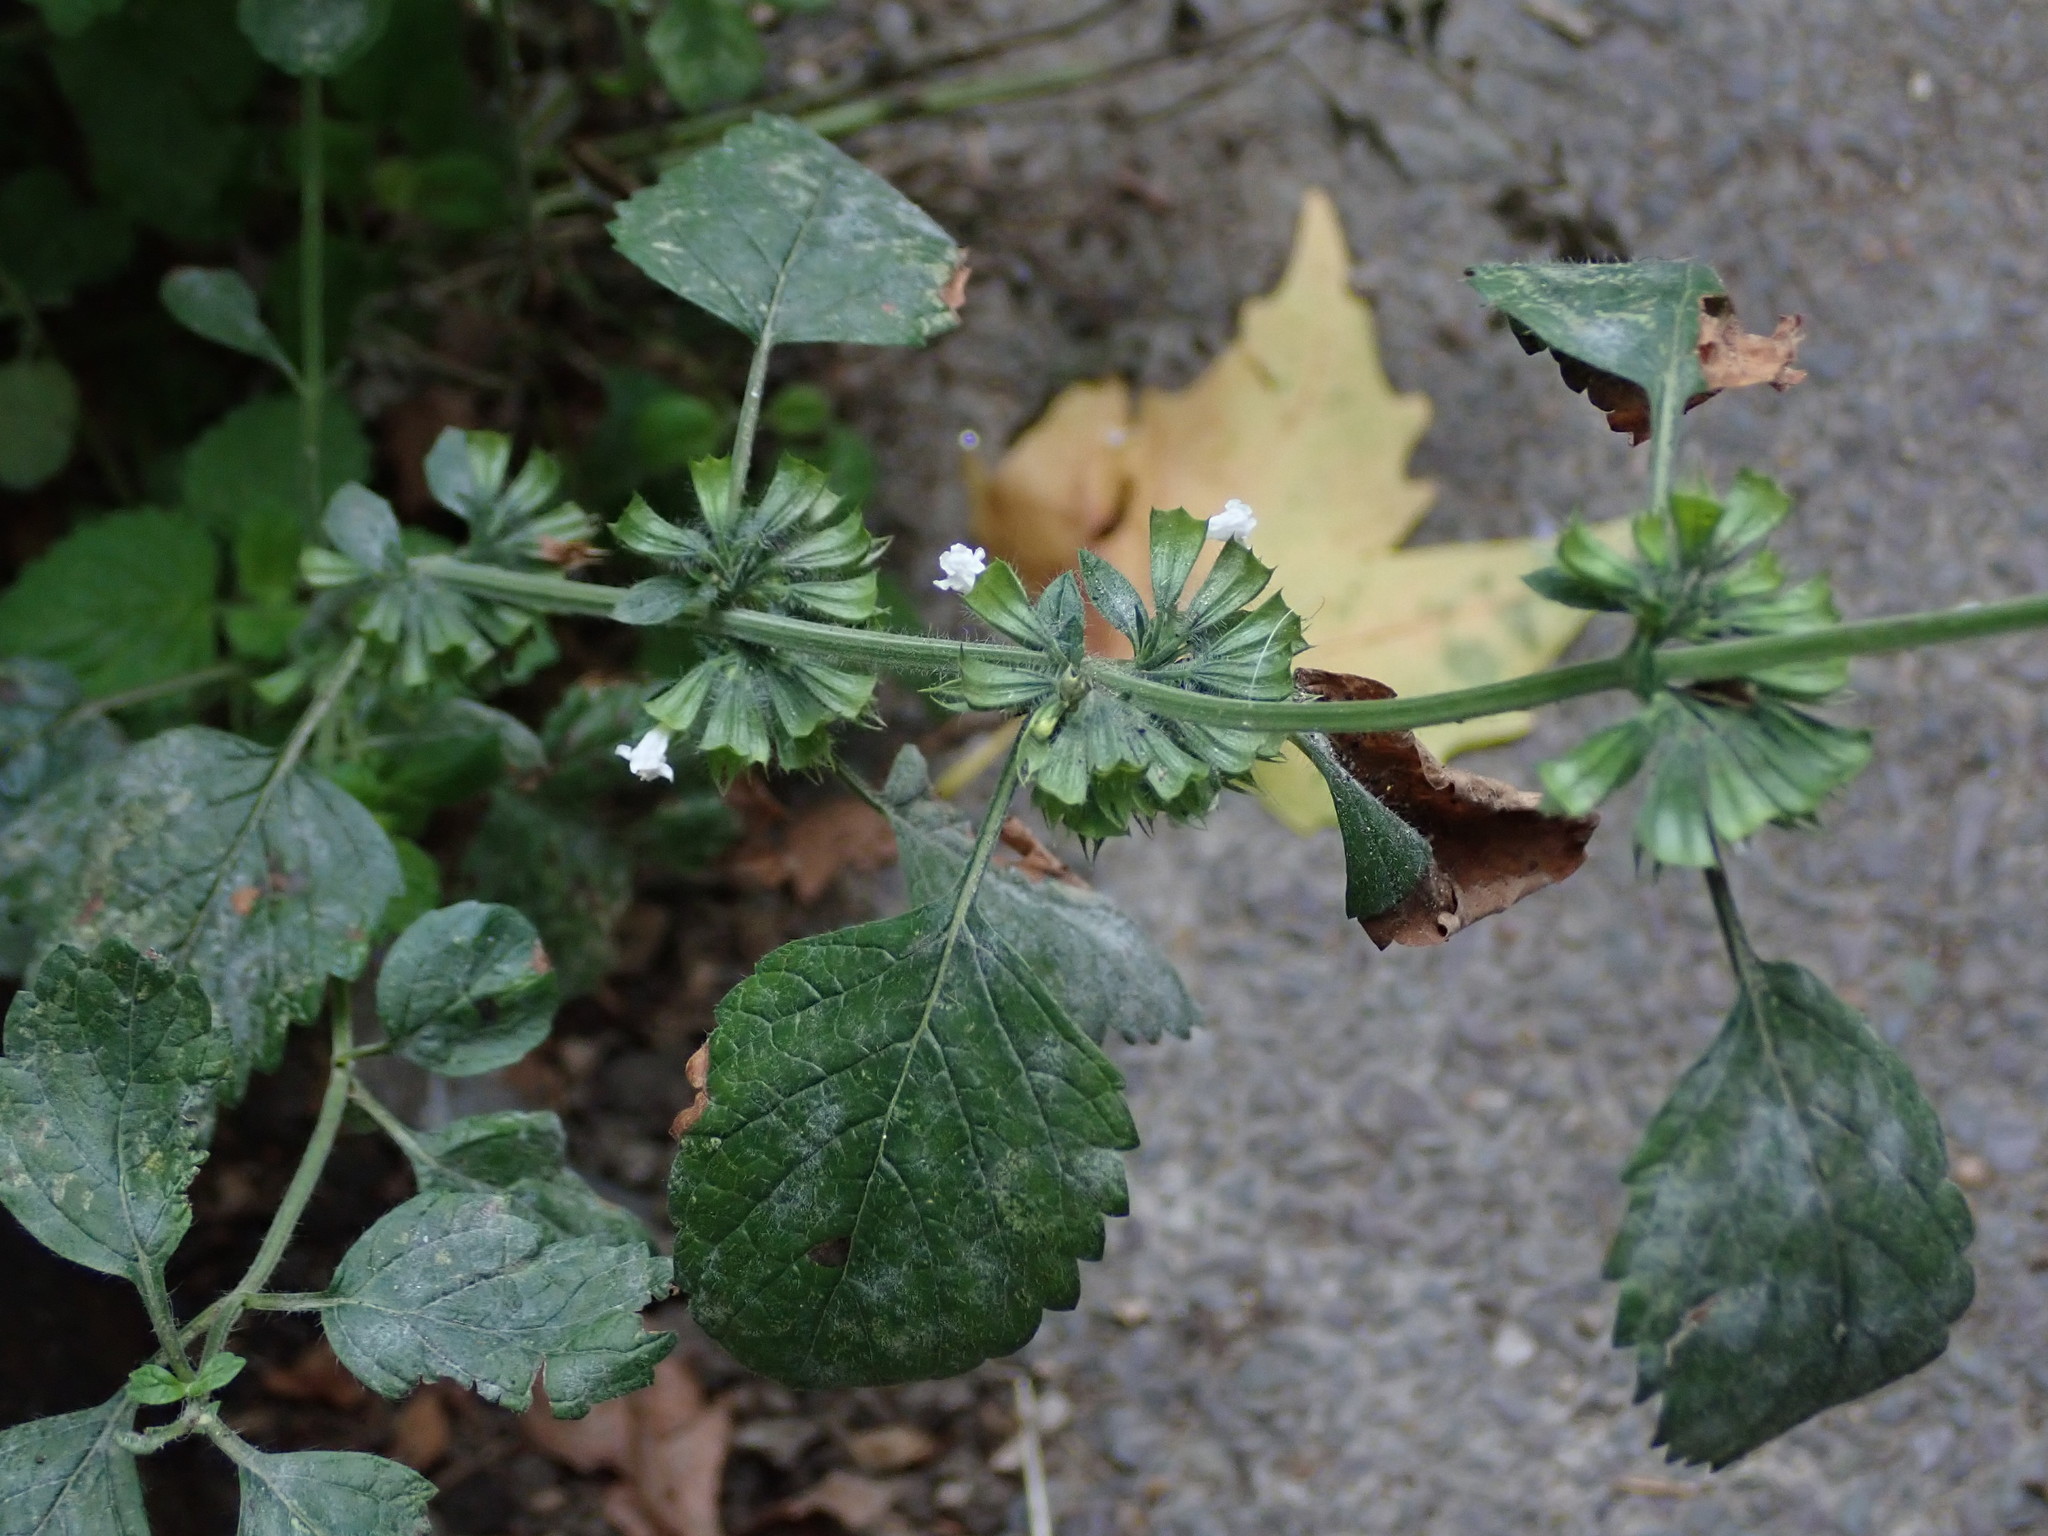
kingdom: Plantae
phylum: Tracheophyta
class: Magnoliopsida
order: Lamiales
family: Lamiaceae
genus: Melissa
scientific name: Melissa officinalis
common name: Balm
